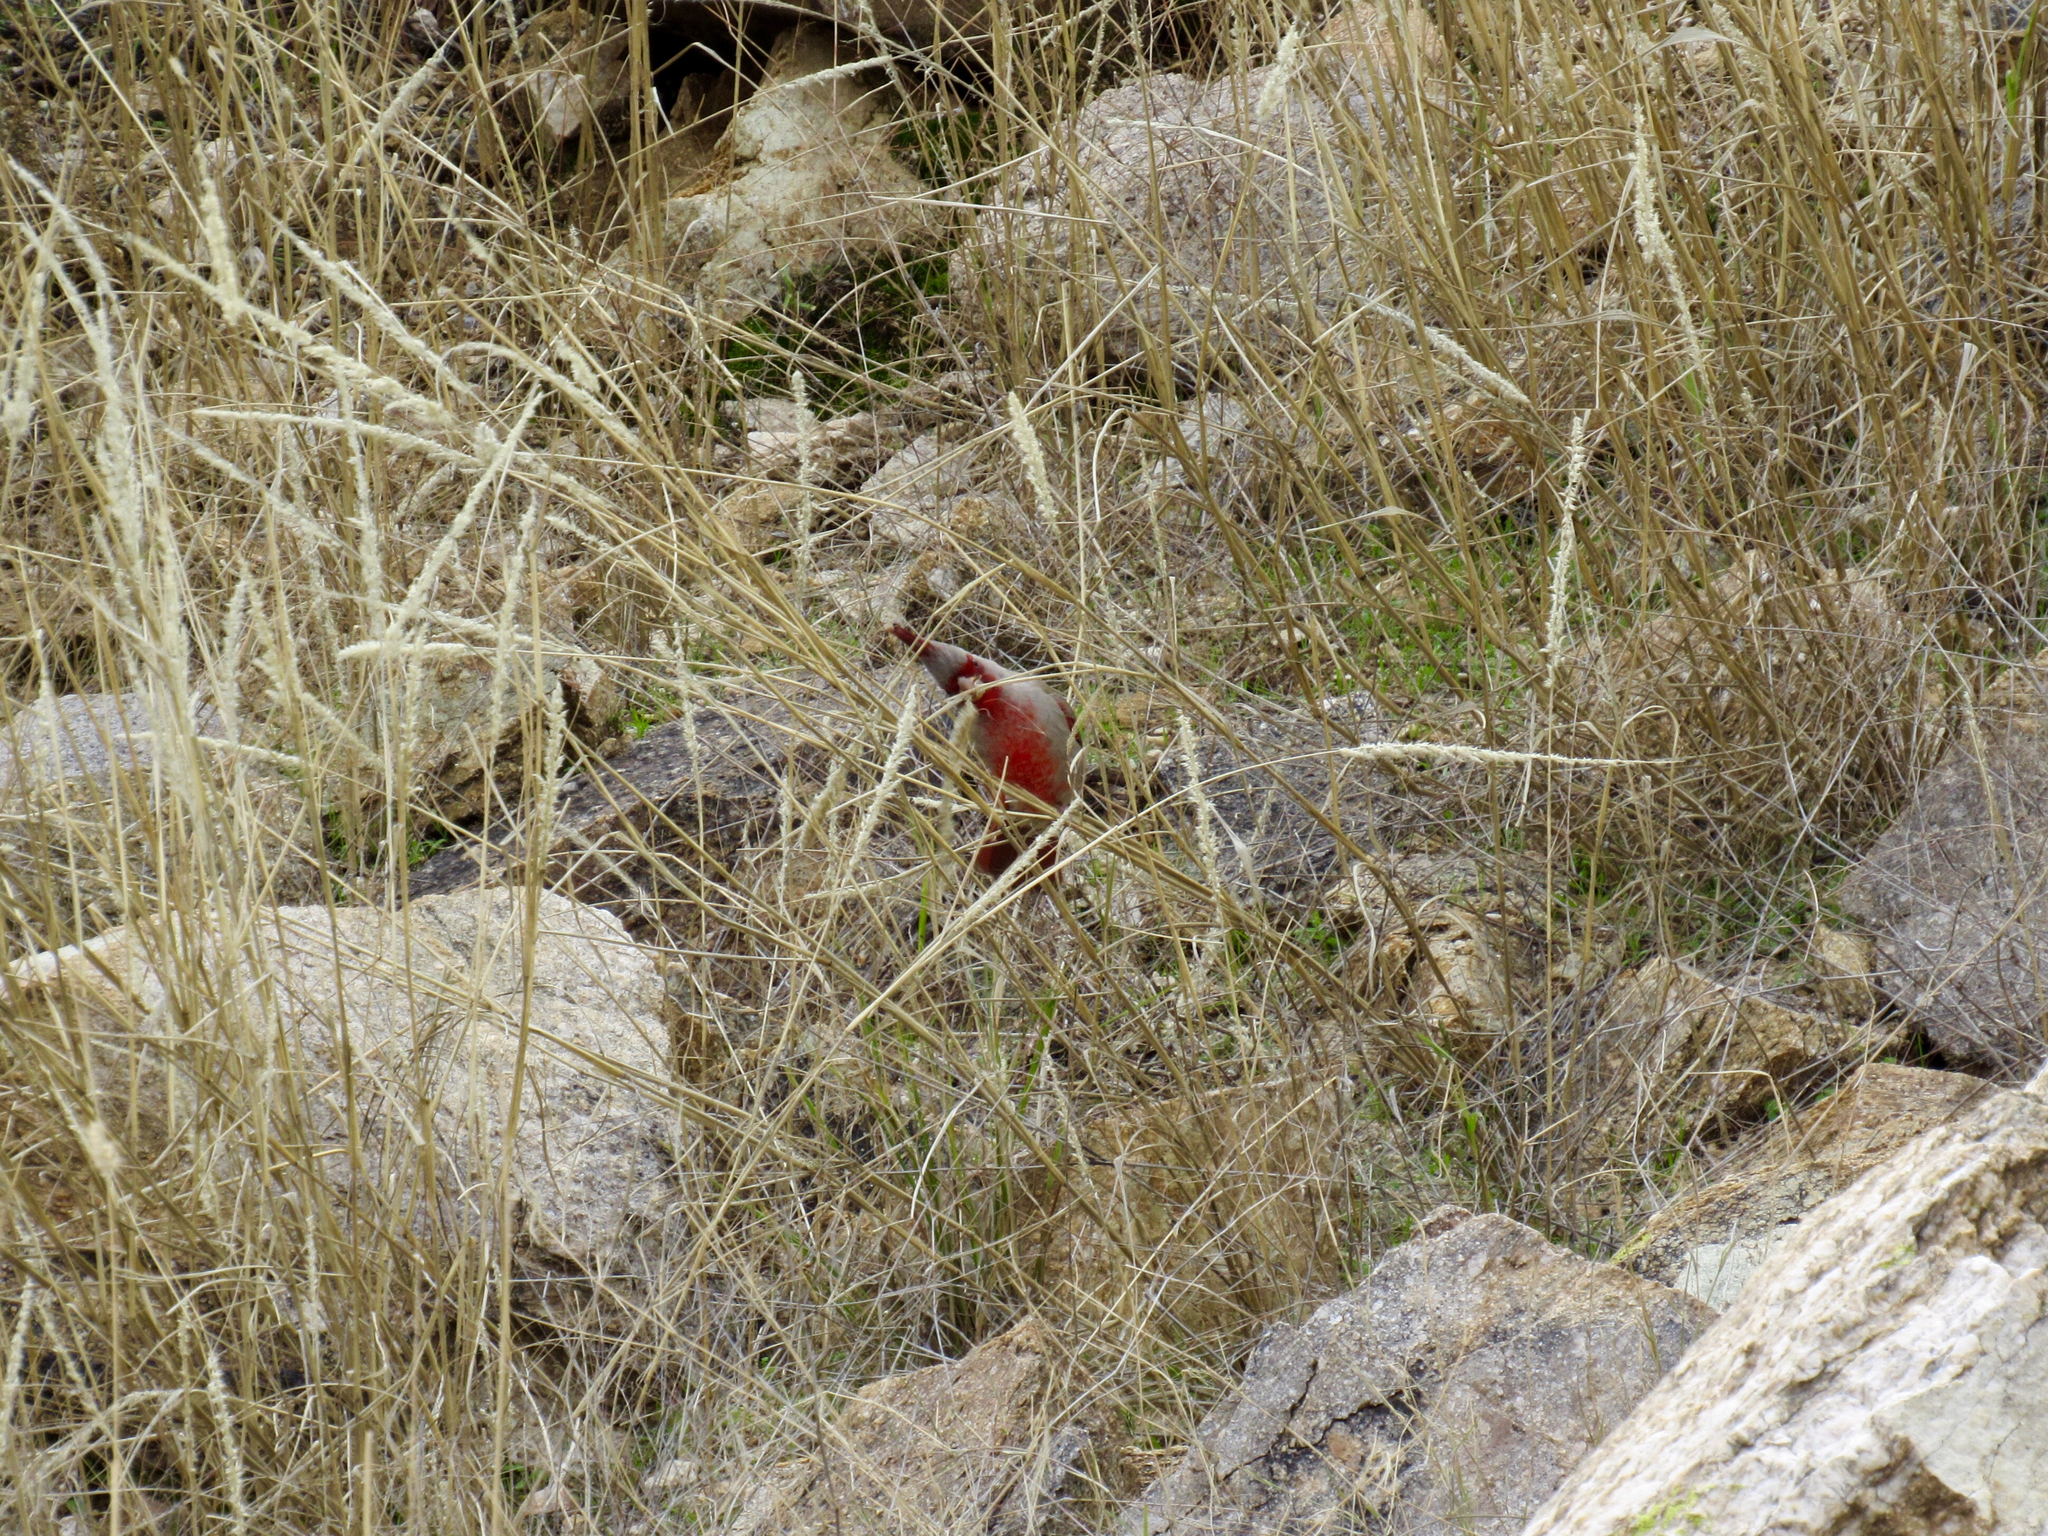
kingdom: Animalia
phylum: Chordata
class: Aves
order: Passeriformes
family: Cardinalidae
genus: Cardinalis
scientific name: Cardinalis sinuatus
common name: Pyrrhuloxia
